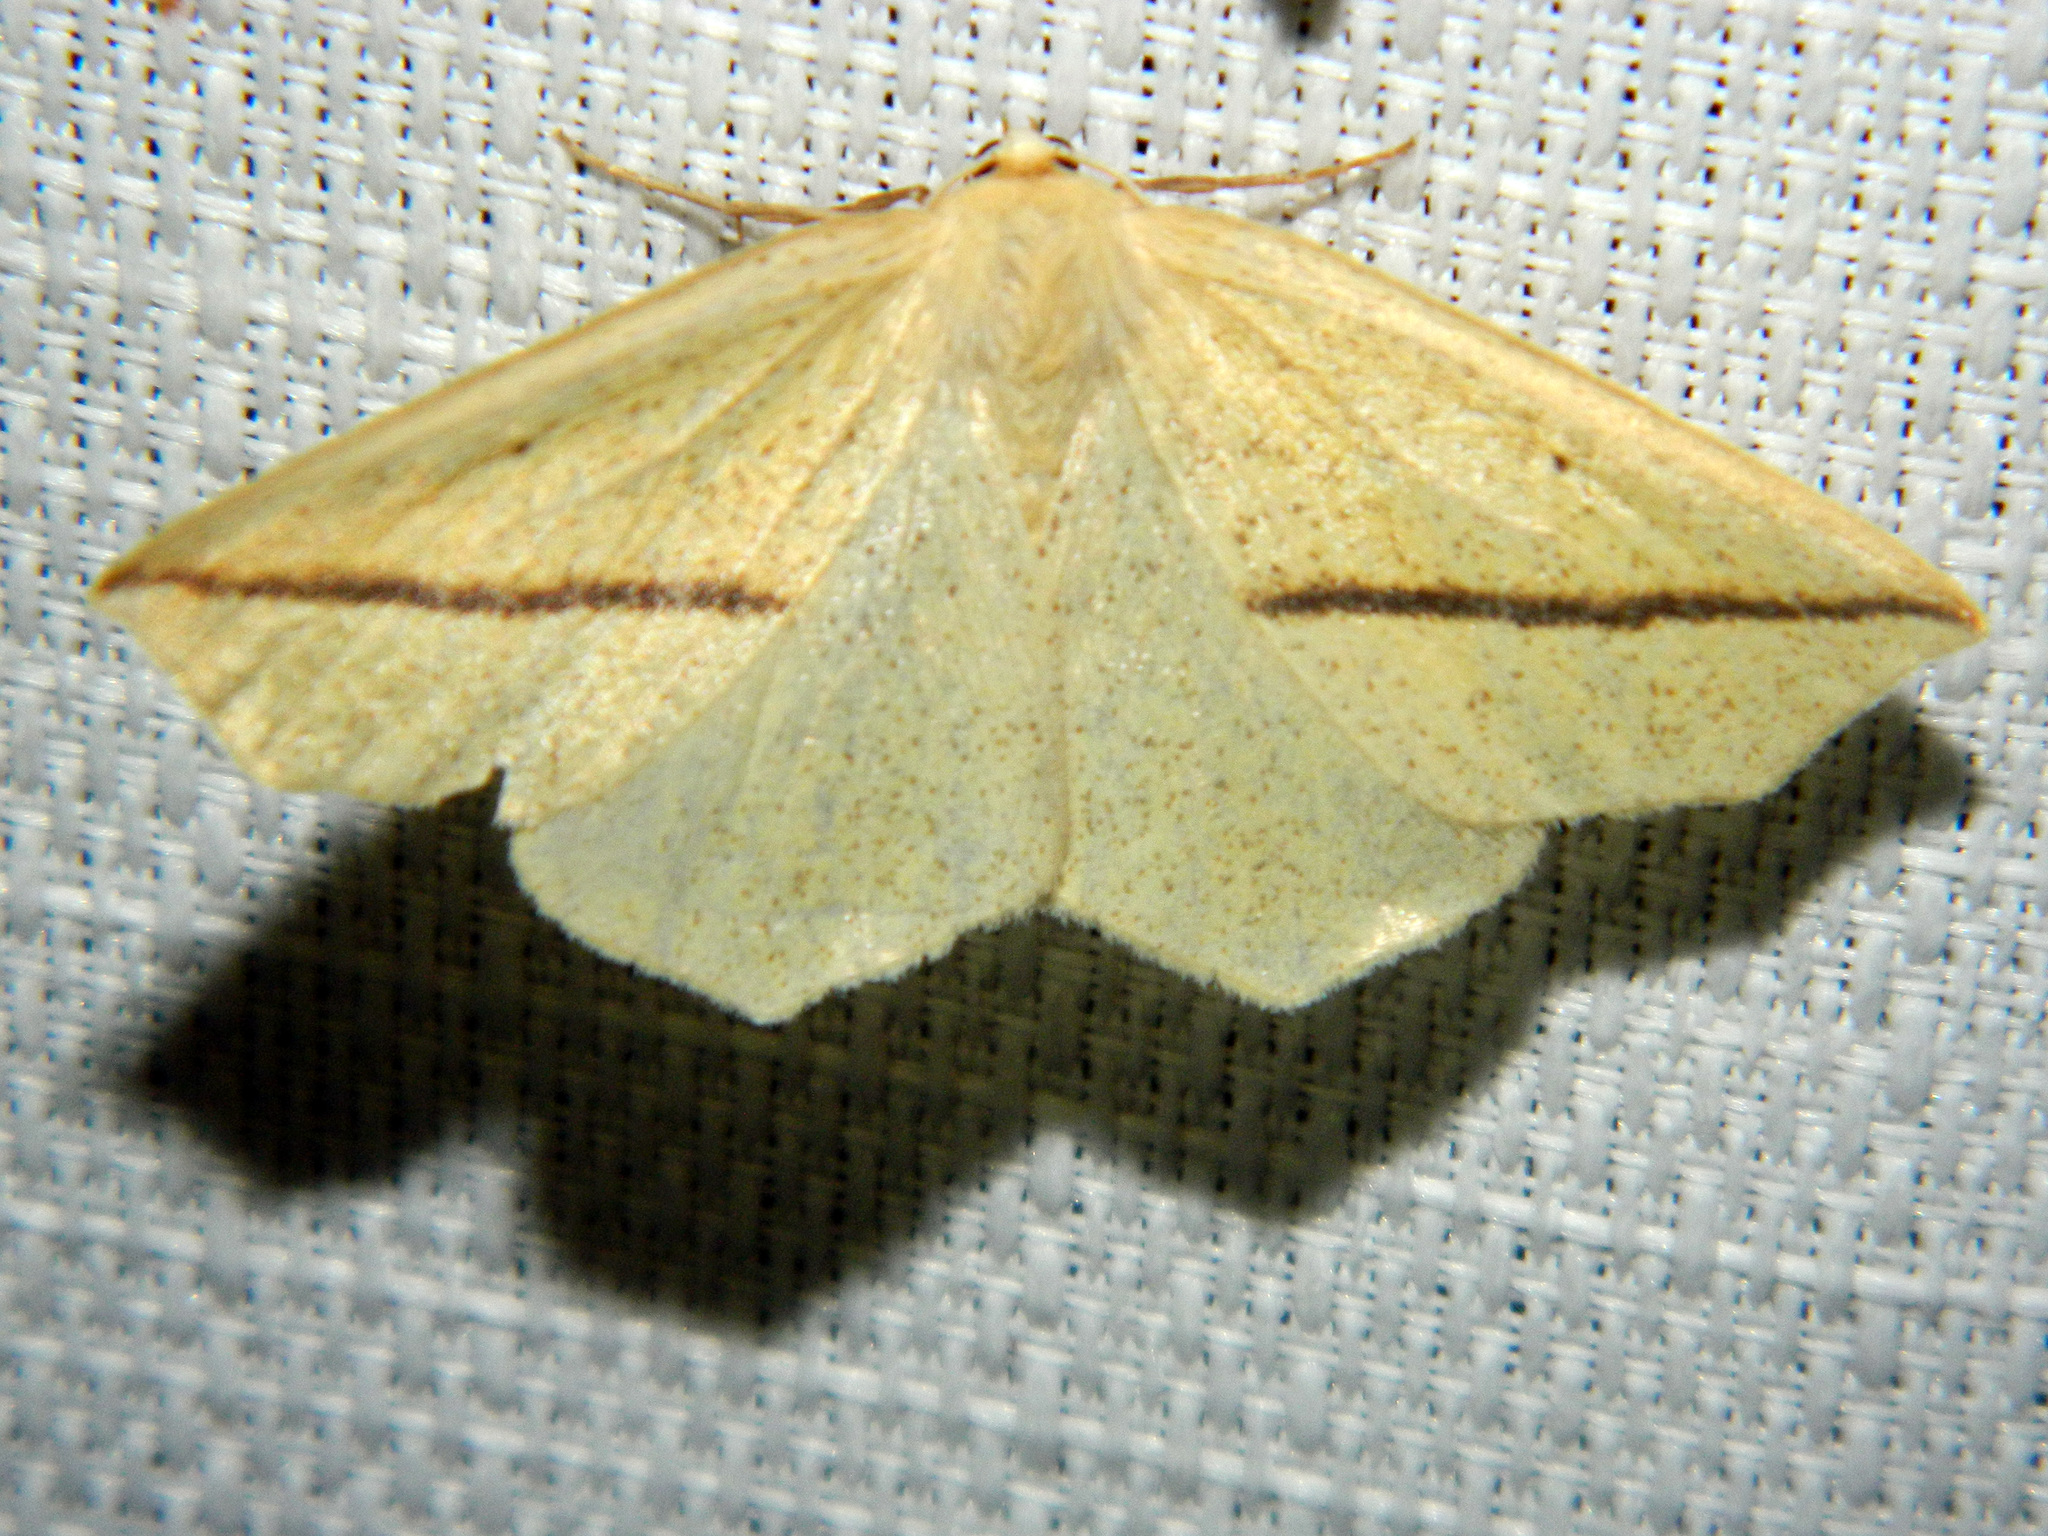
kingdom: Animalia
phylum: Arthropoda
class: Insecta
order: Lepidoptera
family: Geometridae
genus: Tetracis
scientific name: Tetracis crocallata
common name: Yellow slant-line
